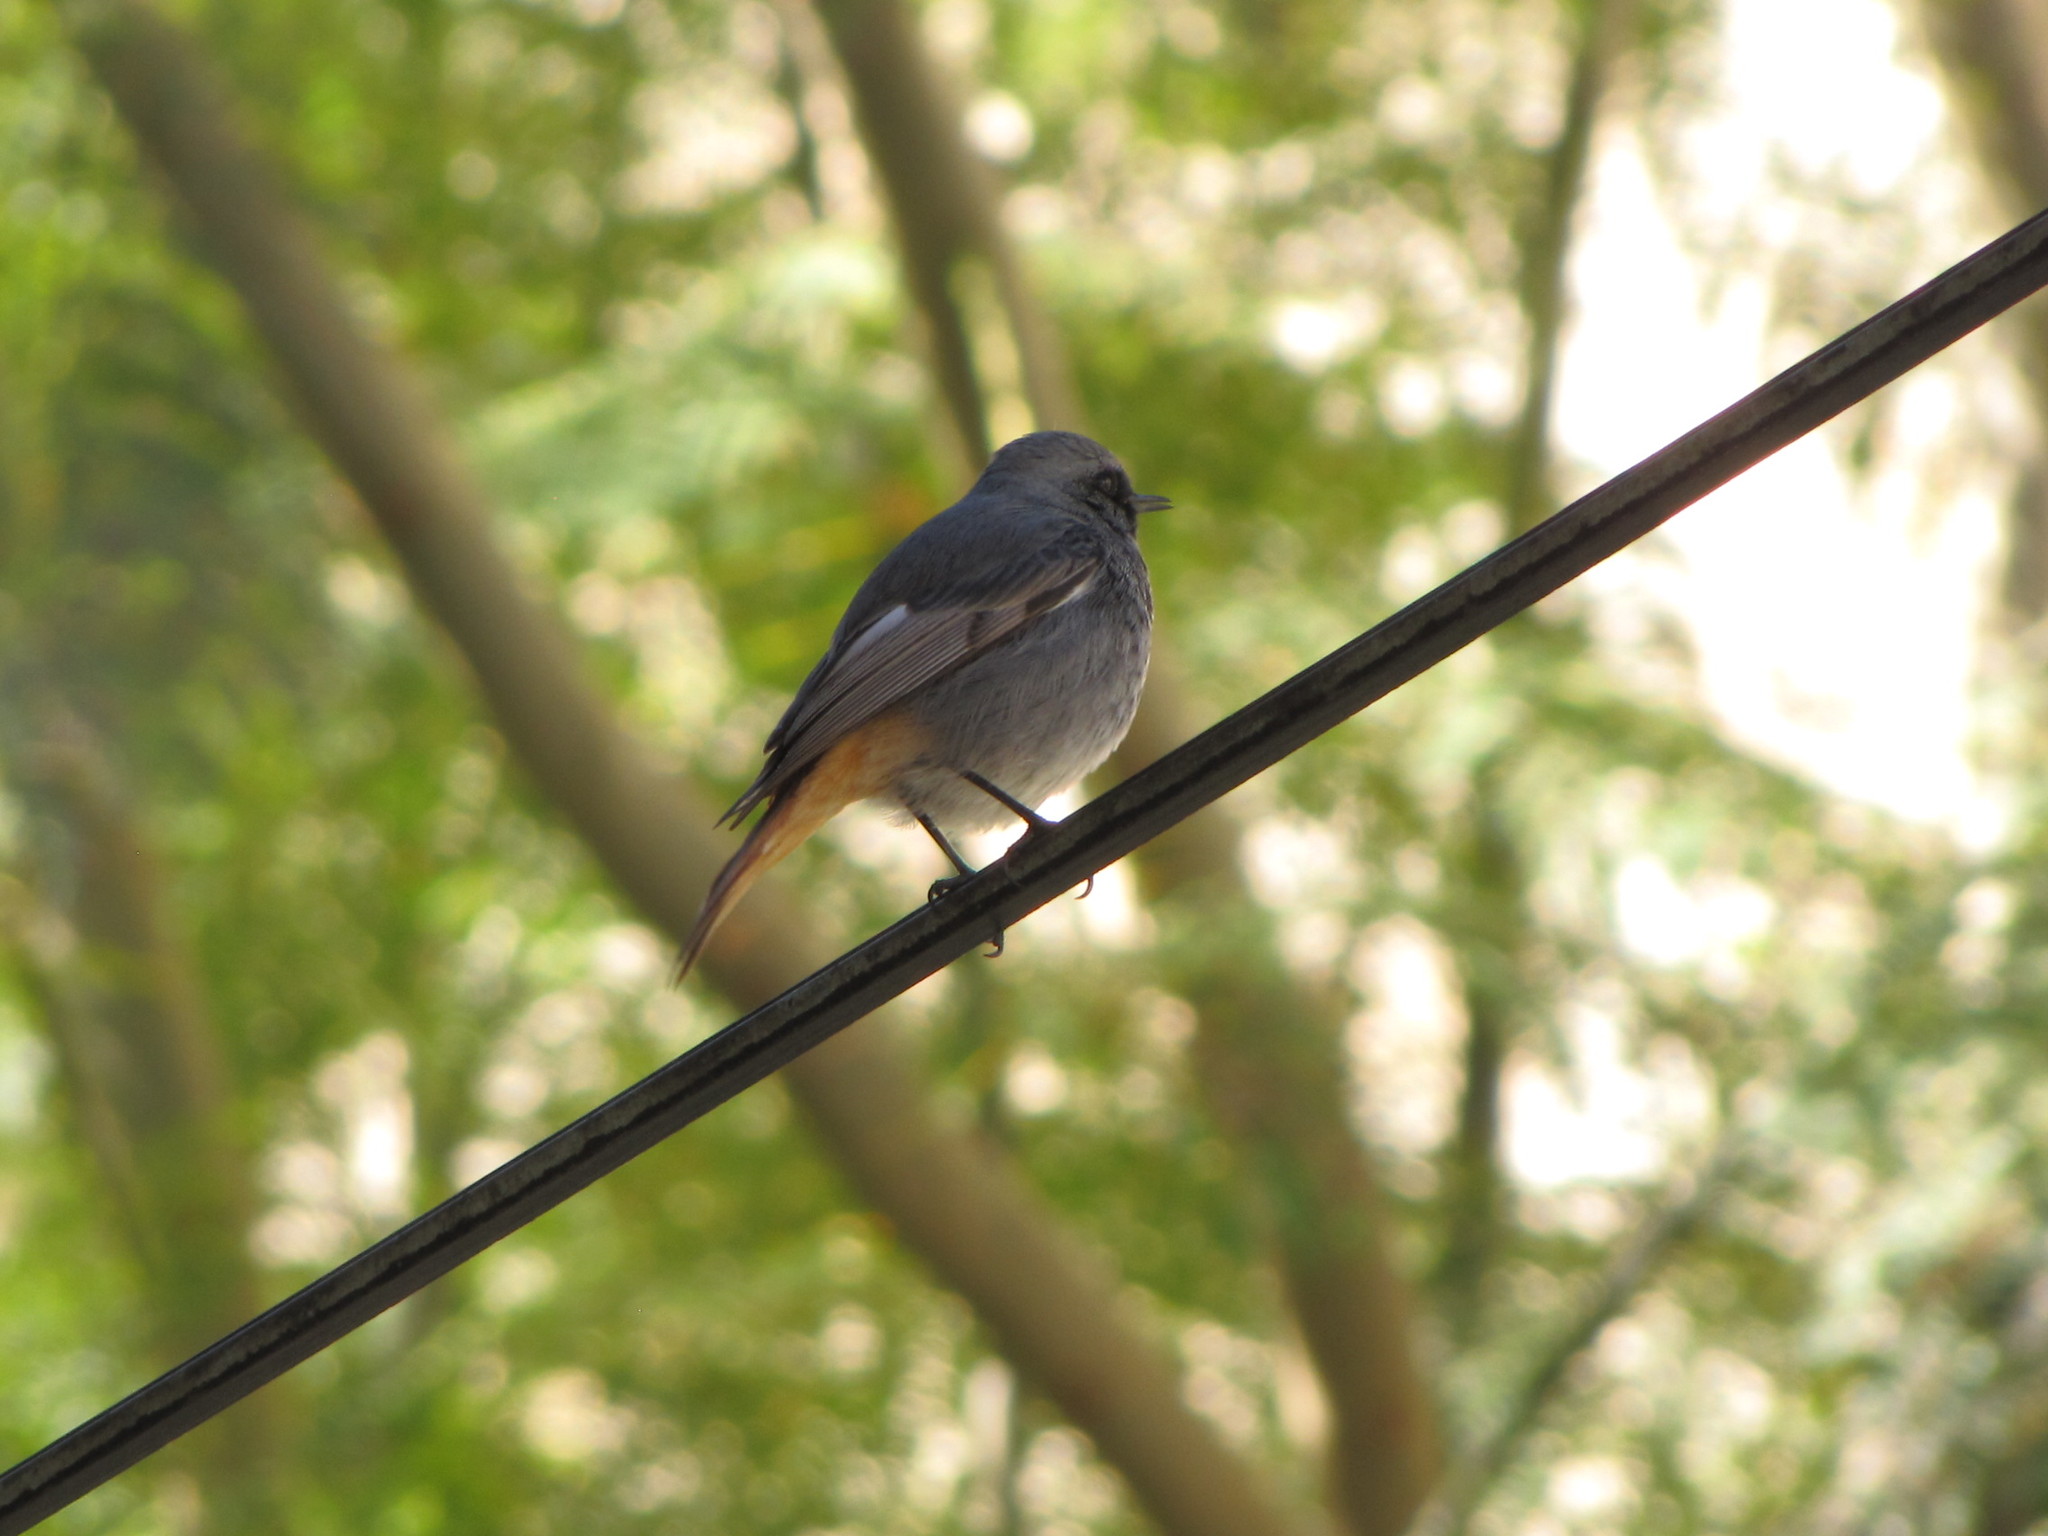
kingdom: Animalia
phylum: Chordata
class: Aves
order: Passeriformes
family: Muscicapidae
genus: Phoenicurus
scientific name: Phoenicurus ochruros
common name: Black redstart
